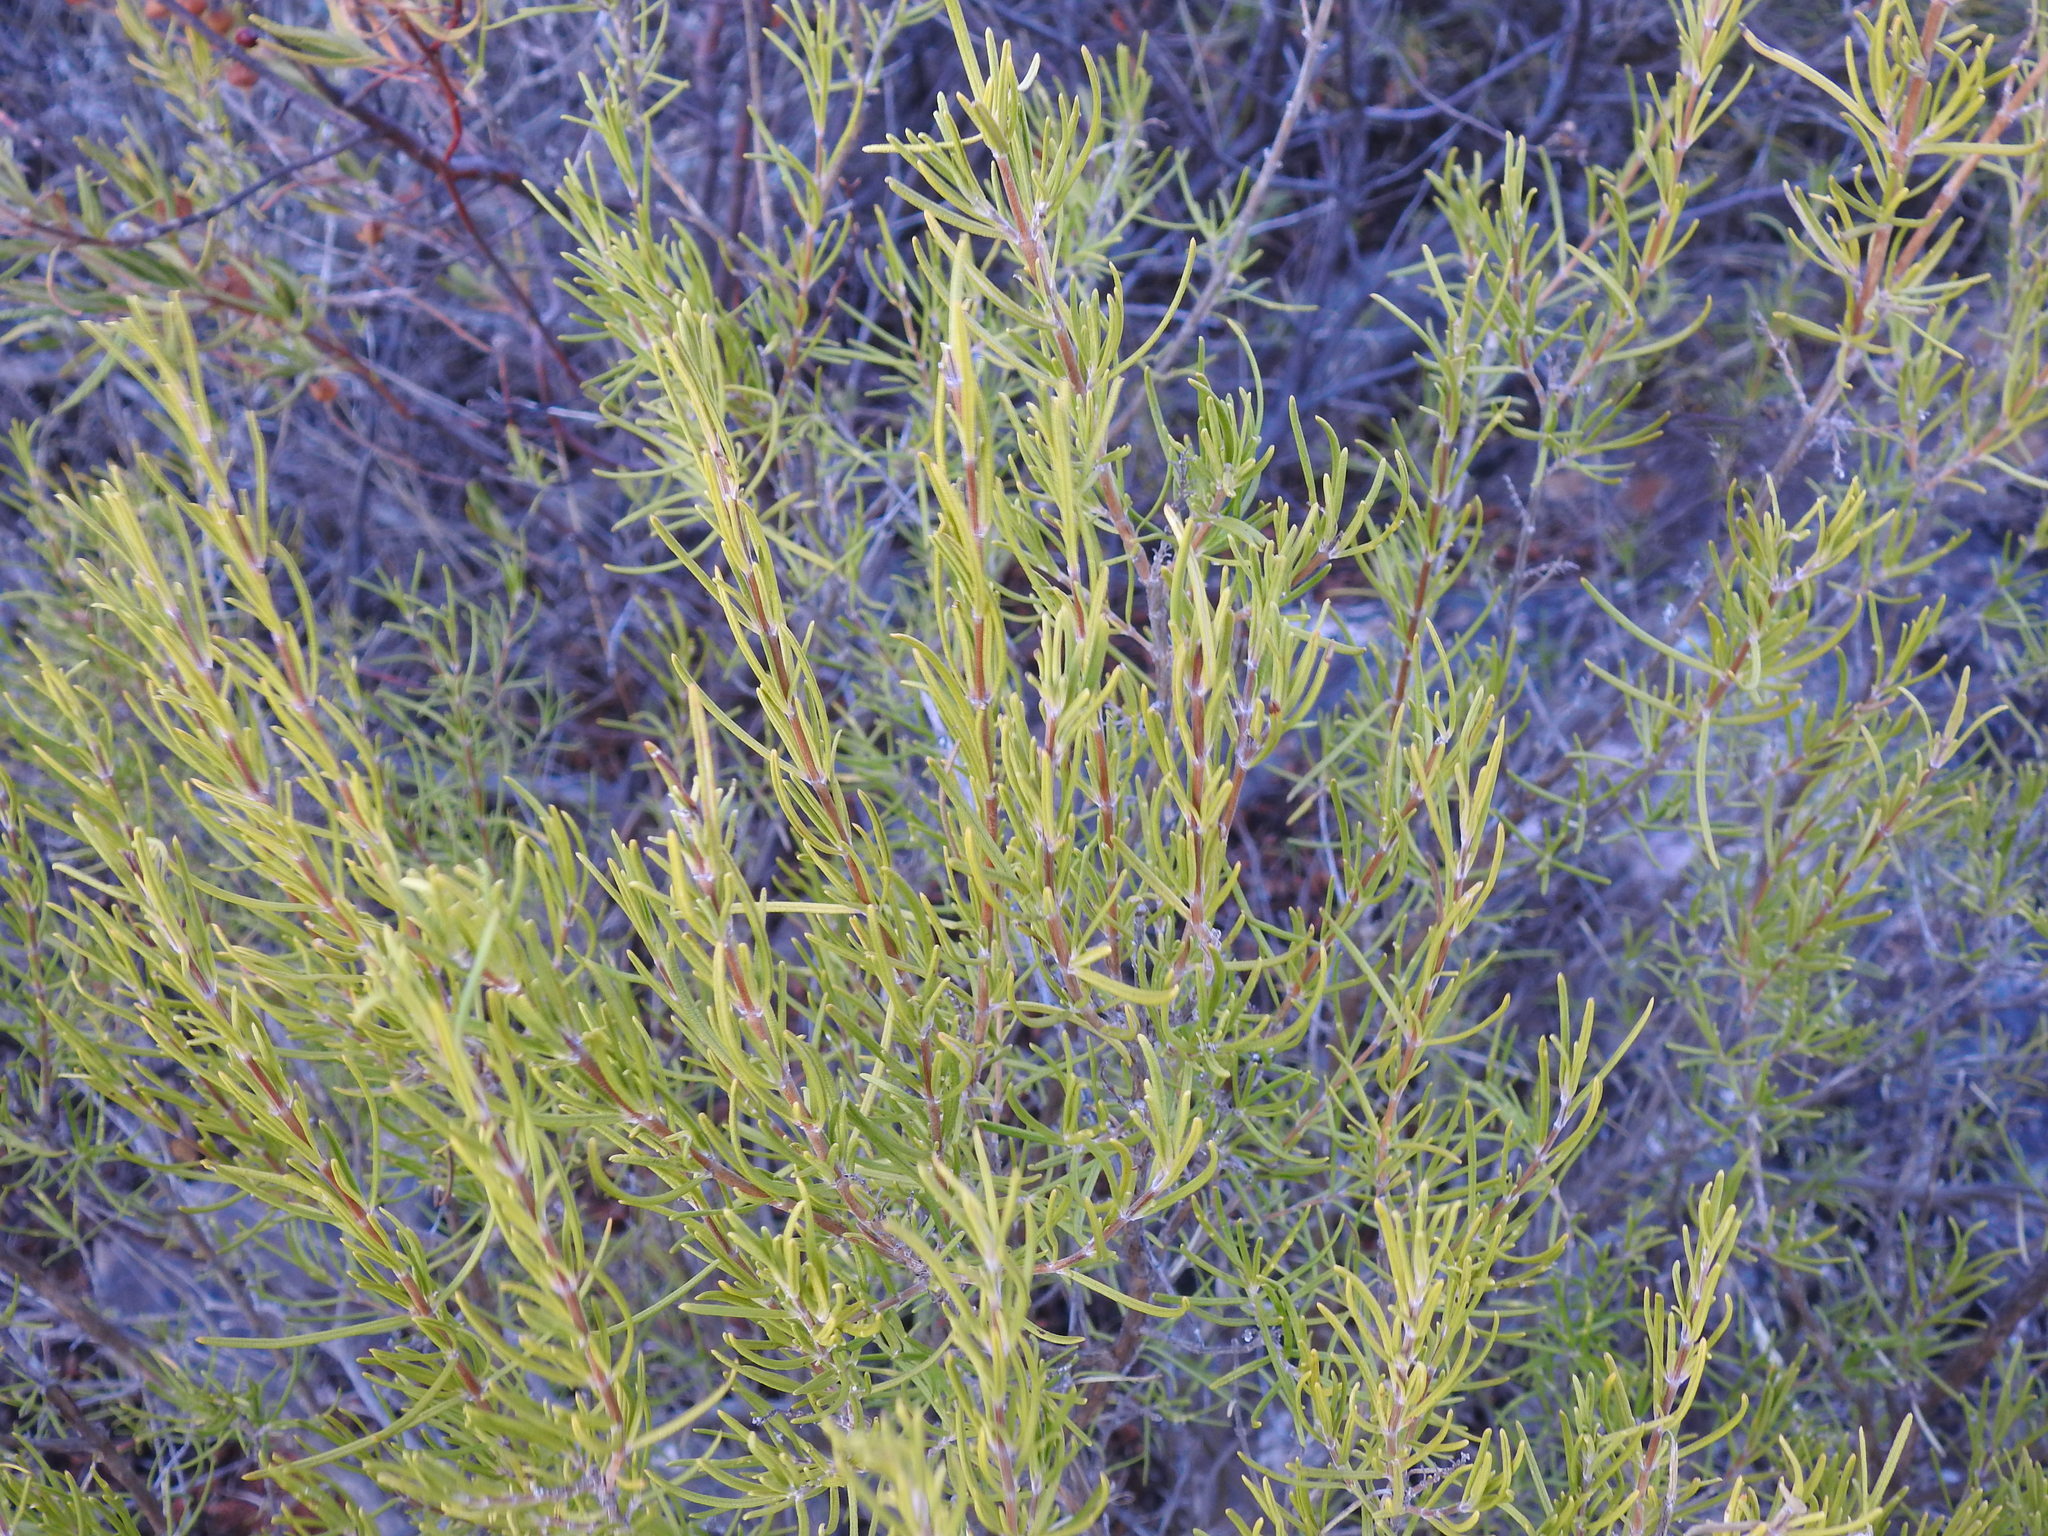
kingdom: Plantae
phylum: Tracheophyta
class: Magnoliopsida
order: Lamiales
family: Lamiaceae
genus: Salvia
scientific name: Salvia rosmarinus
